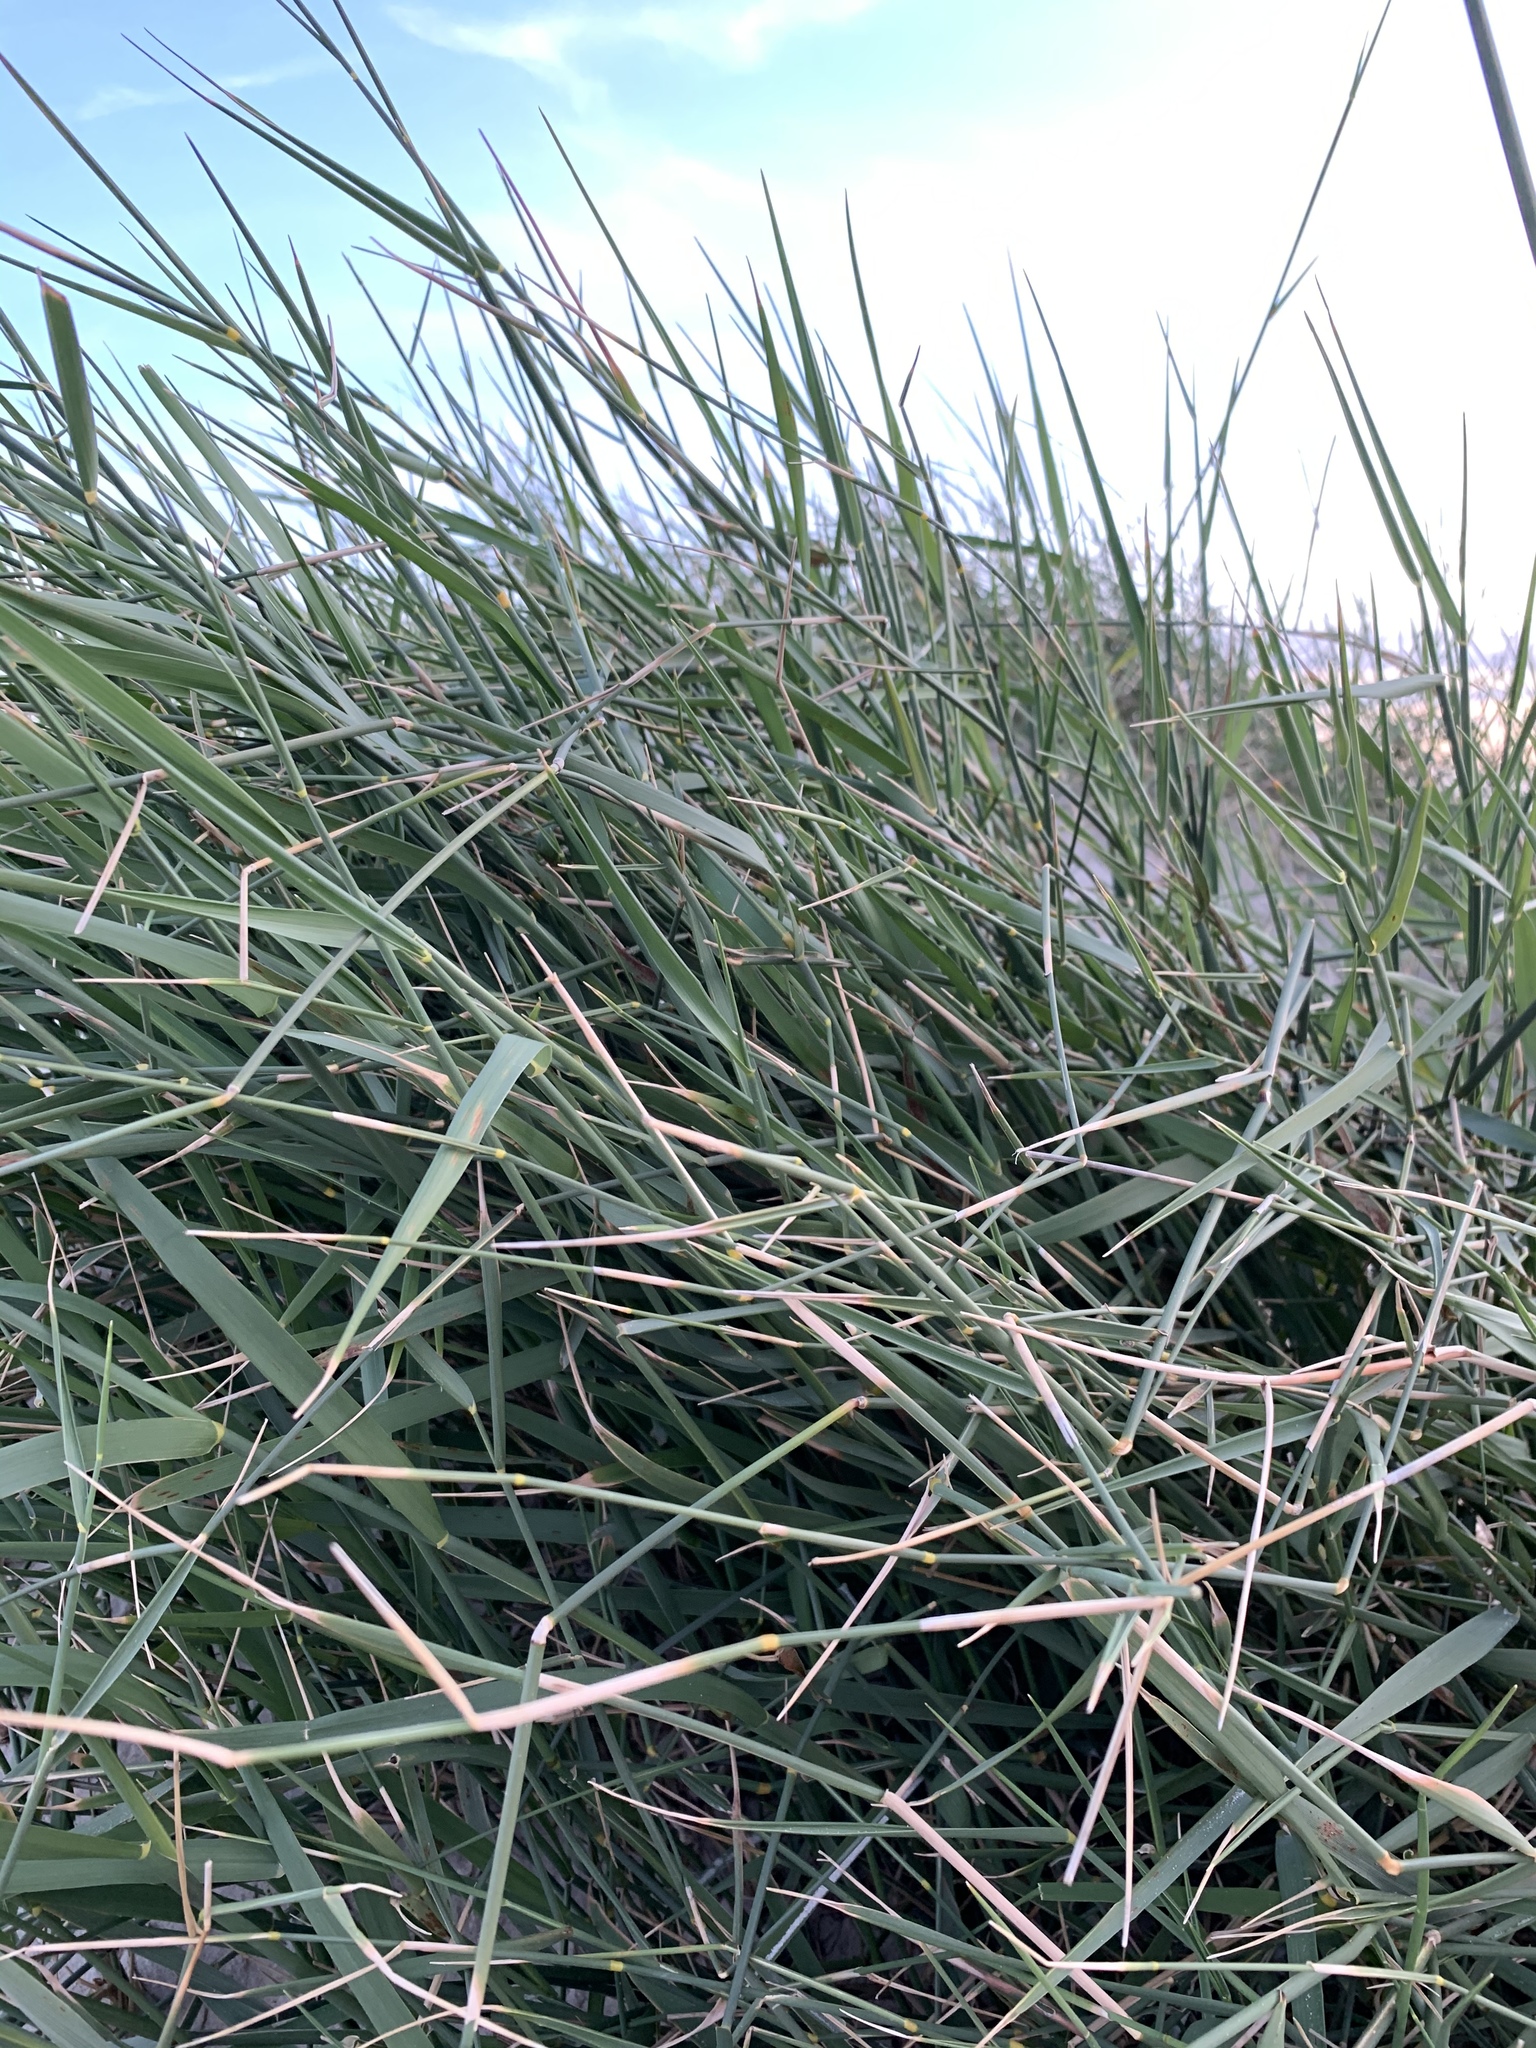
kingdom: Plantae
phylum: Tracheophyta
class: Liliopsida
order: Poales
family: Poaceae
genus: Ehrharta
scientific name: Ehrharta villosa
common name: Pyp grass
